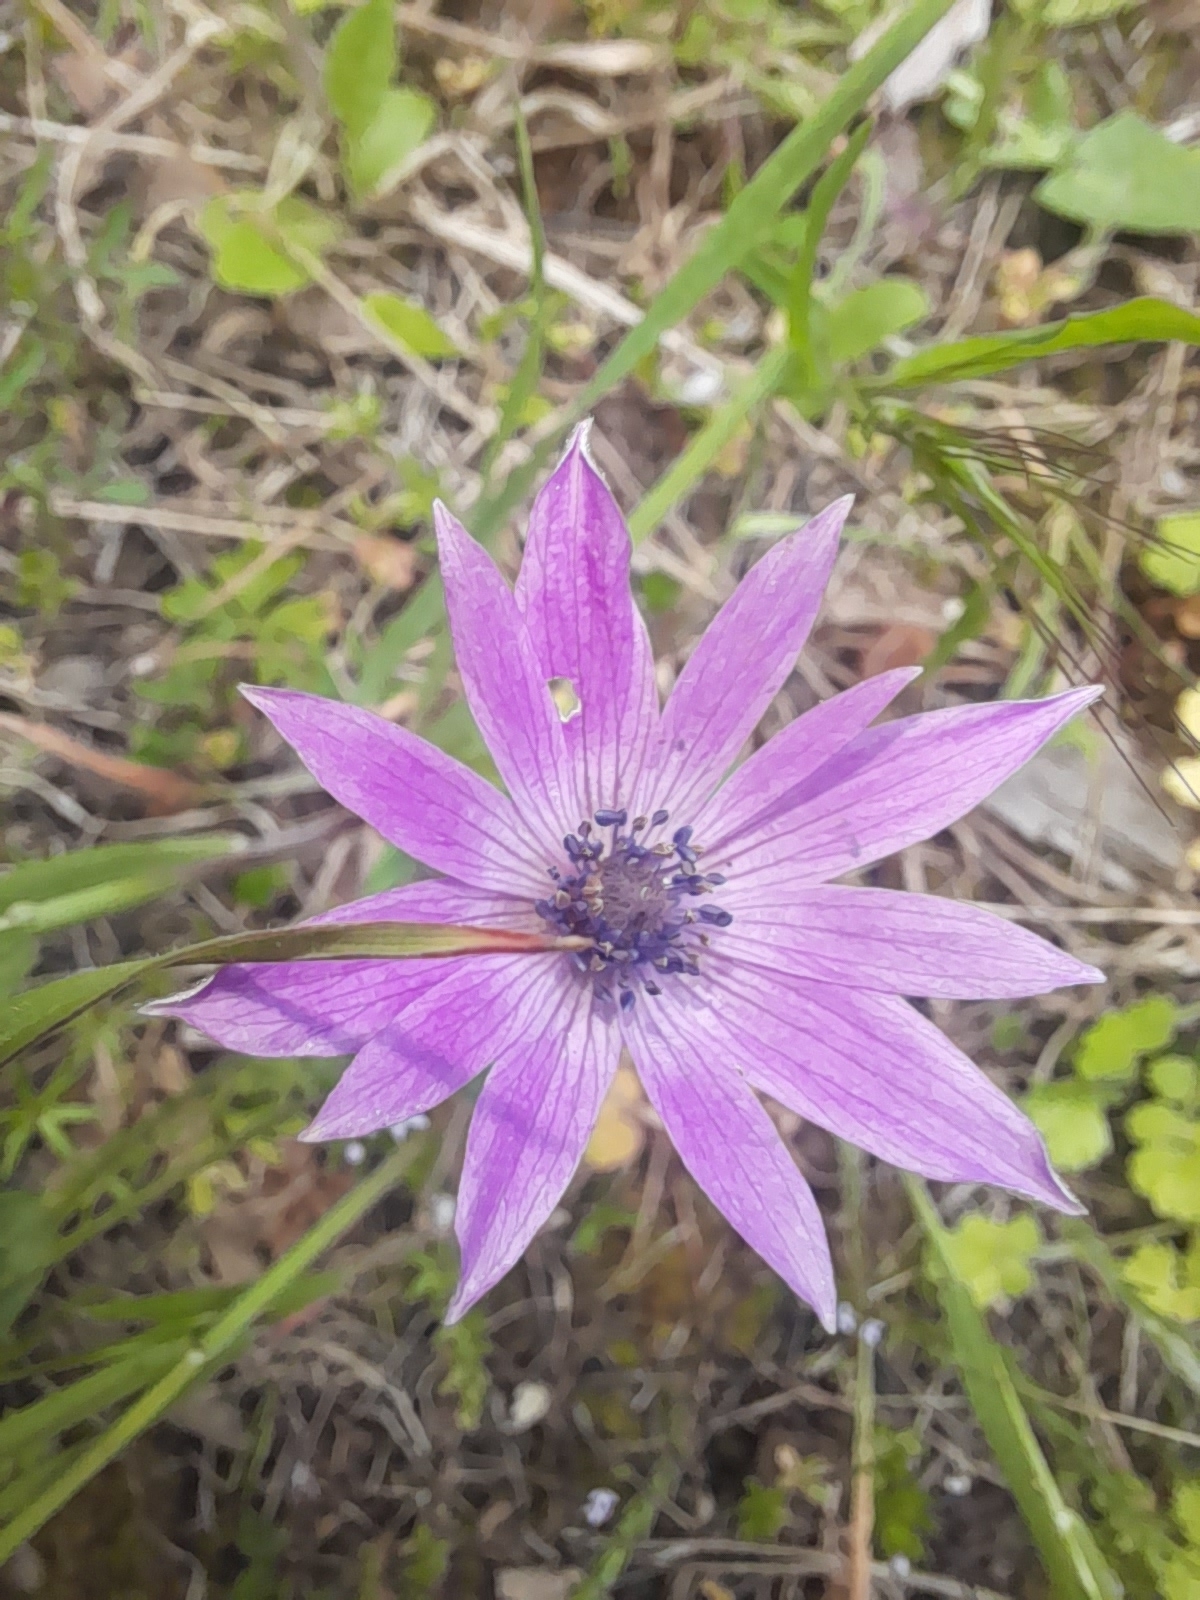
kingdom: Plantae
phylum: Tracheophyta
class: Magnoliopsida
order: Ranunculales
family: Ranunculaceae
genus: Anemone
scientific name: Anemone hortensis
